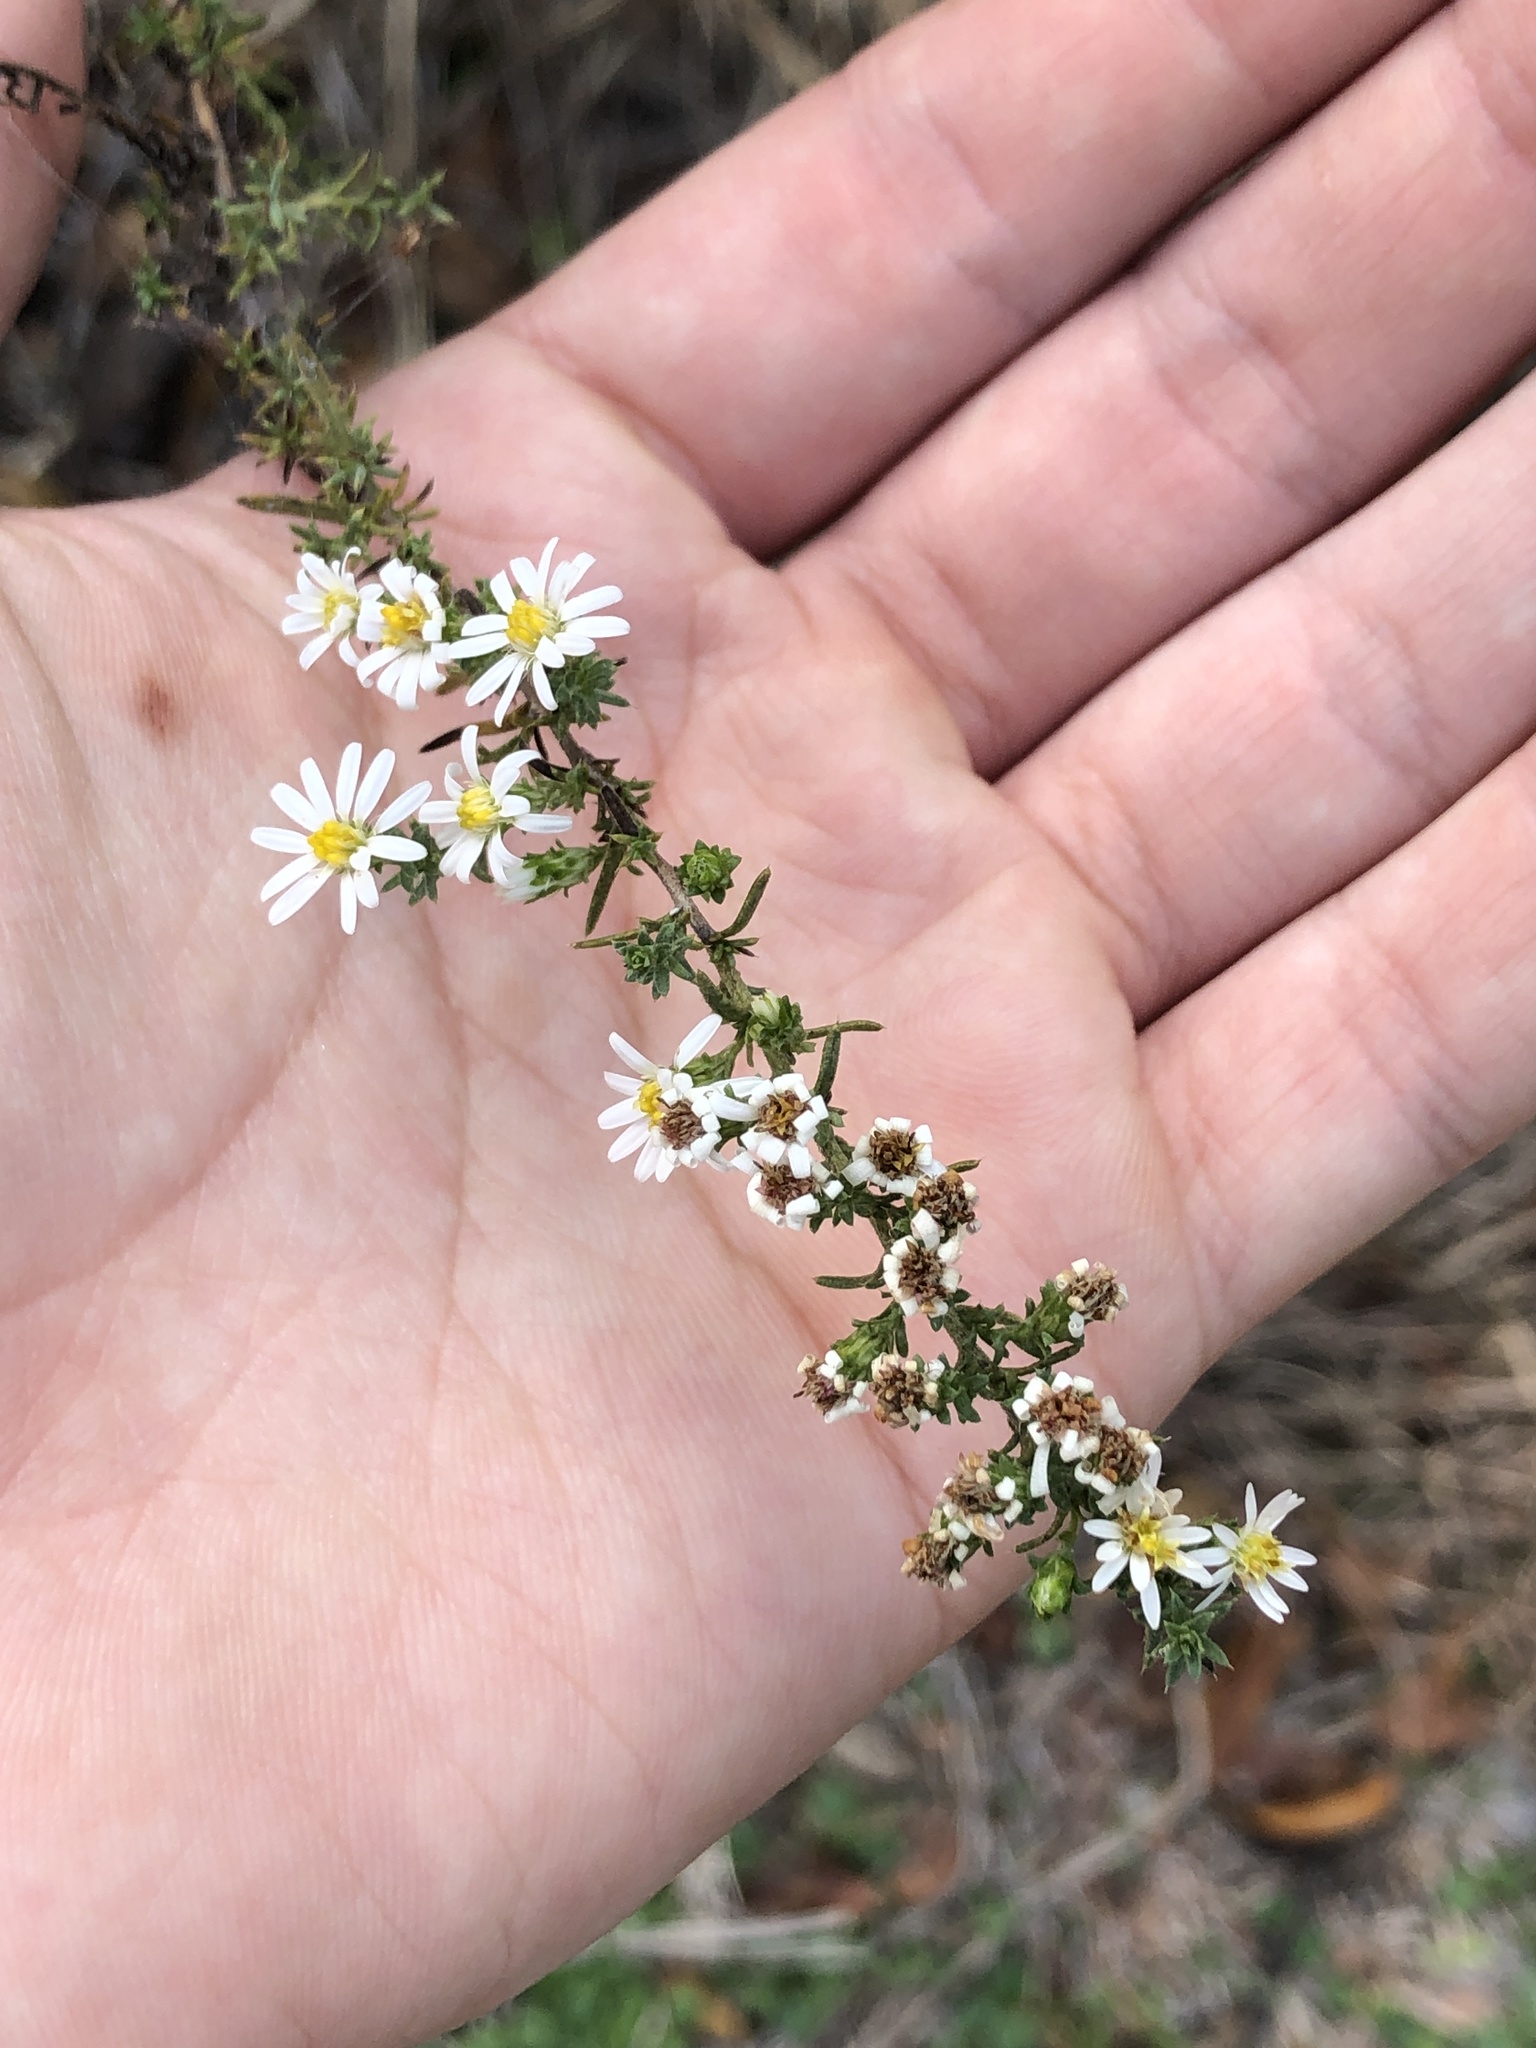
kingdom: Plantae
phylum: Tracheophyta
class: Magnoliopsida
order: Asterales
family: Asteraceae
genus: Symphyotrichum
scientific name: Symphyotrichum ericoides
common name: Heath aster
